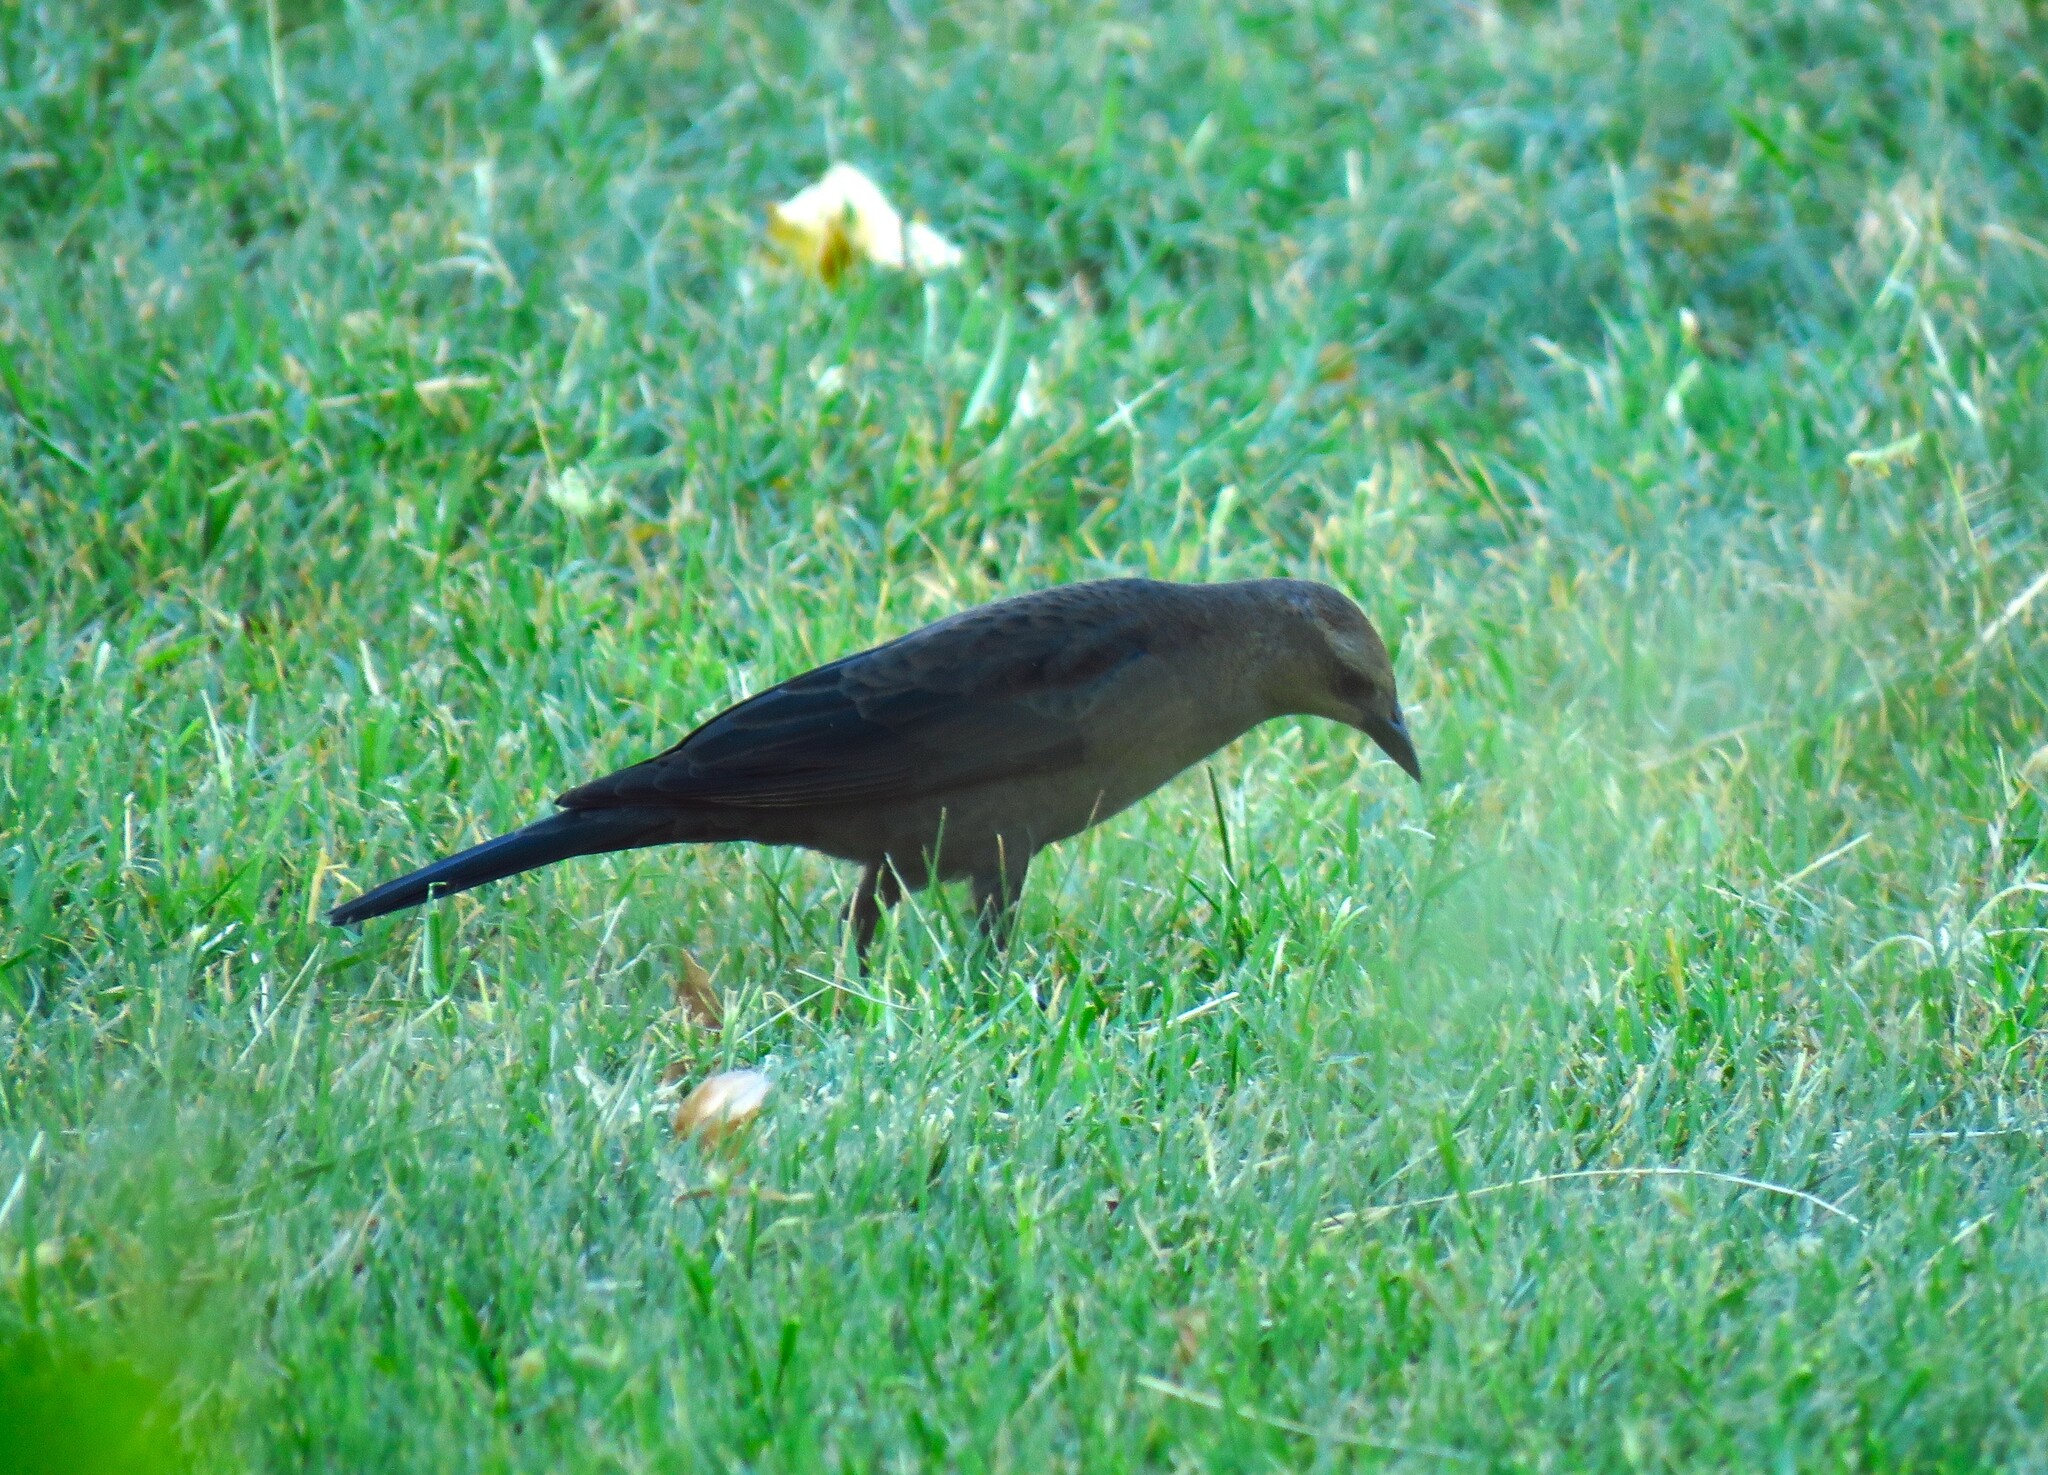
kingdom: Animalia
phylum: Chordata
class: Aves
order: Passeriformes
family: Icteridae
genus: Euphagus
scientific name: Euphagus cyanocephalus
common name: Brewer's blackbird
